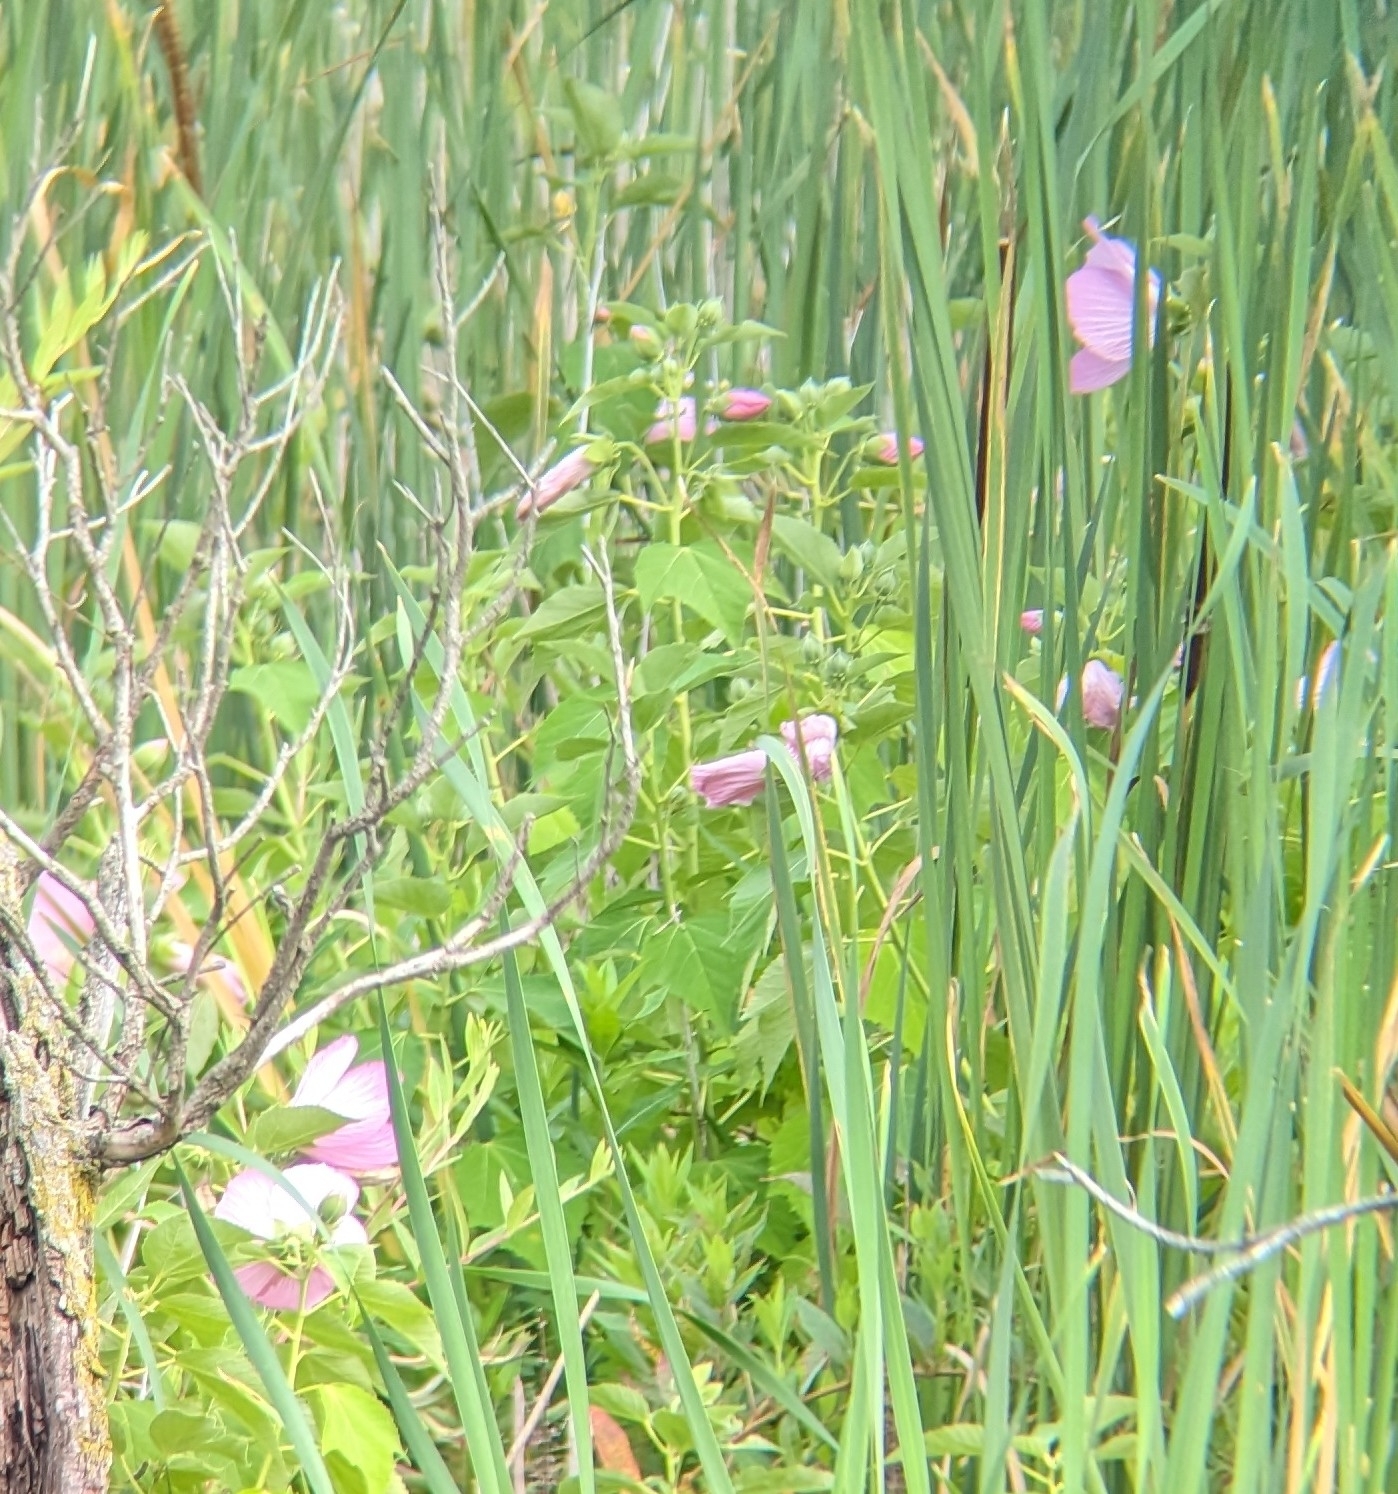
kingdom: Plantae
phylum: Tracheophyta
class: Magnoliopsida
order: Malvales
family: Malvaceae
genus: Hibiscus
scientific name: Hibiscus moscheutos
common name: Common rose-mallow
